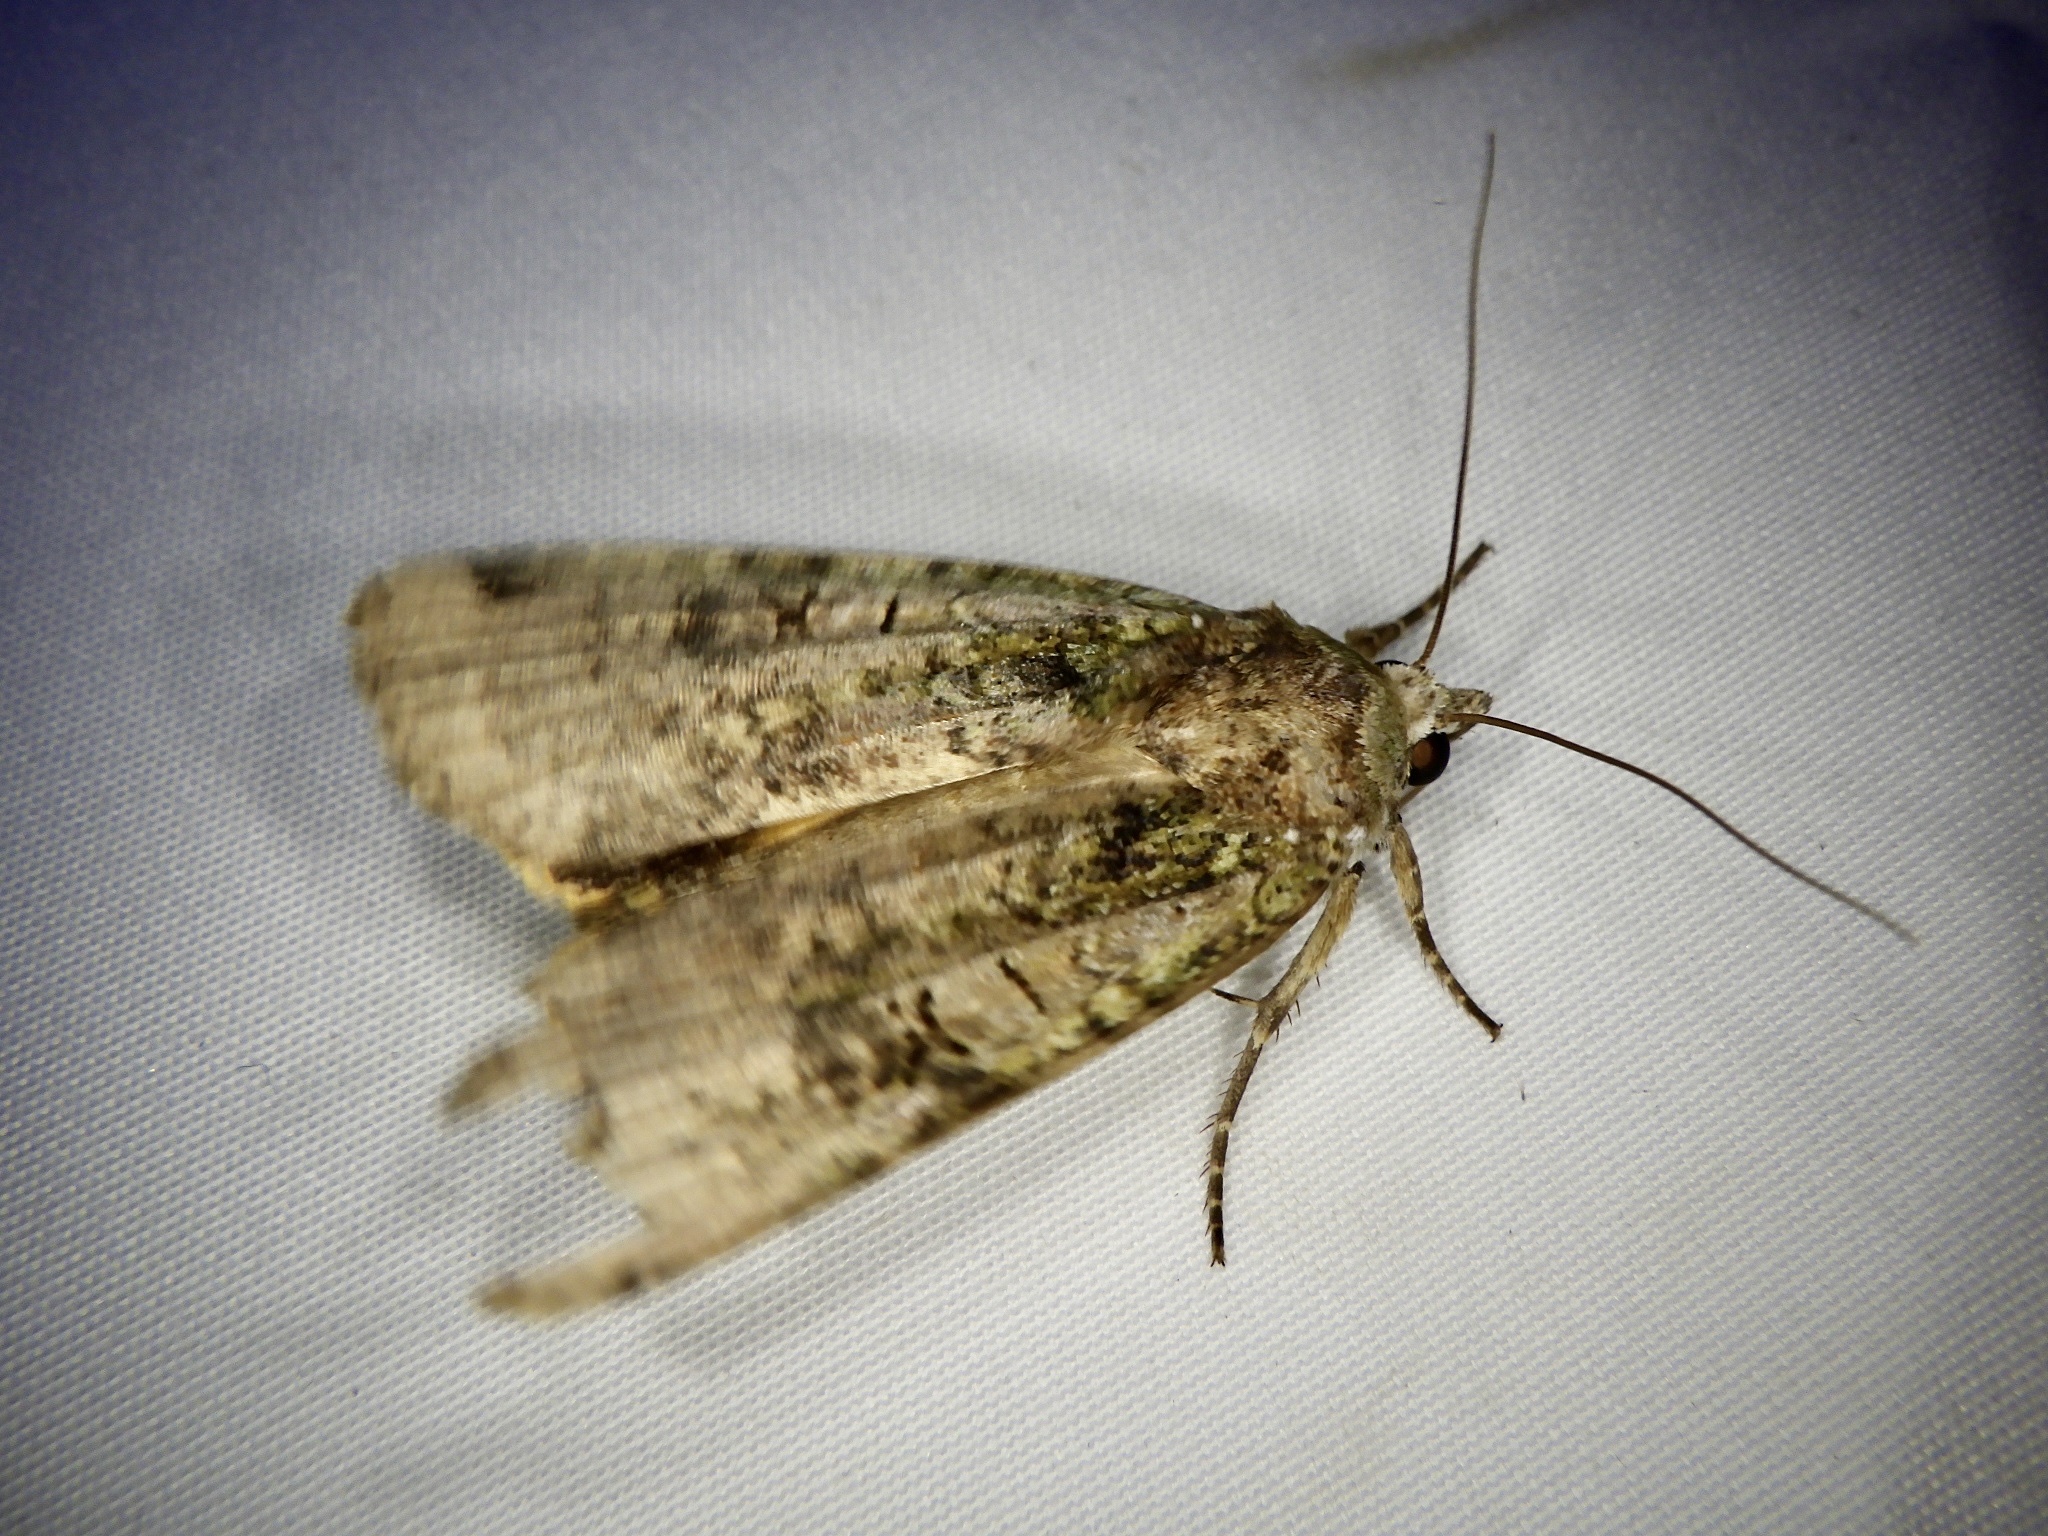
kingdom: Animalia
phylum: Arthropoda
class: Insecta
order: Lepidoptera
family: Noctuidae
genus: Xestia
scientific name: Xestia semiherbida
